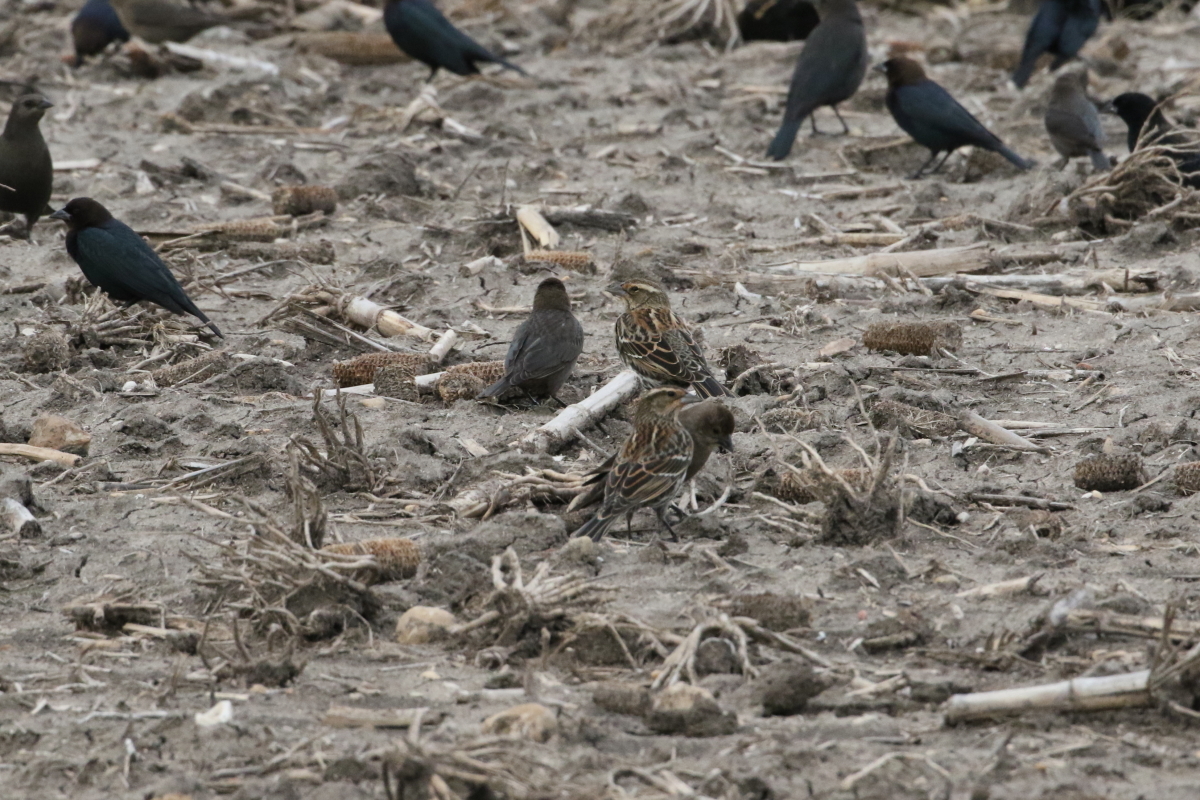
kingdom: Animalia
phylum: Chordata
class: Aves
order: Passeriformes
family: Icteridae
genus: Agelaius
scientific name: Agelaius phoeniceus
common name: Red-winged blackbird
